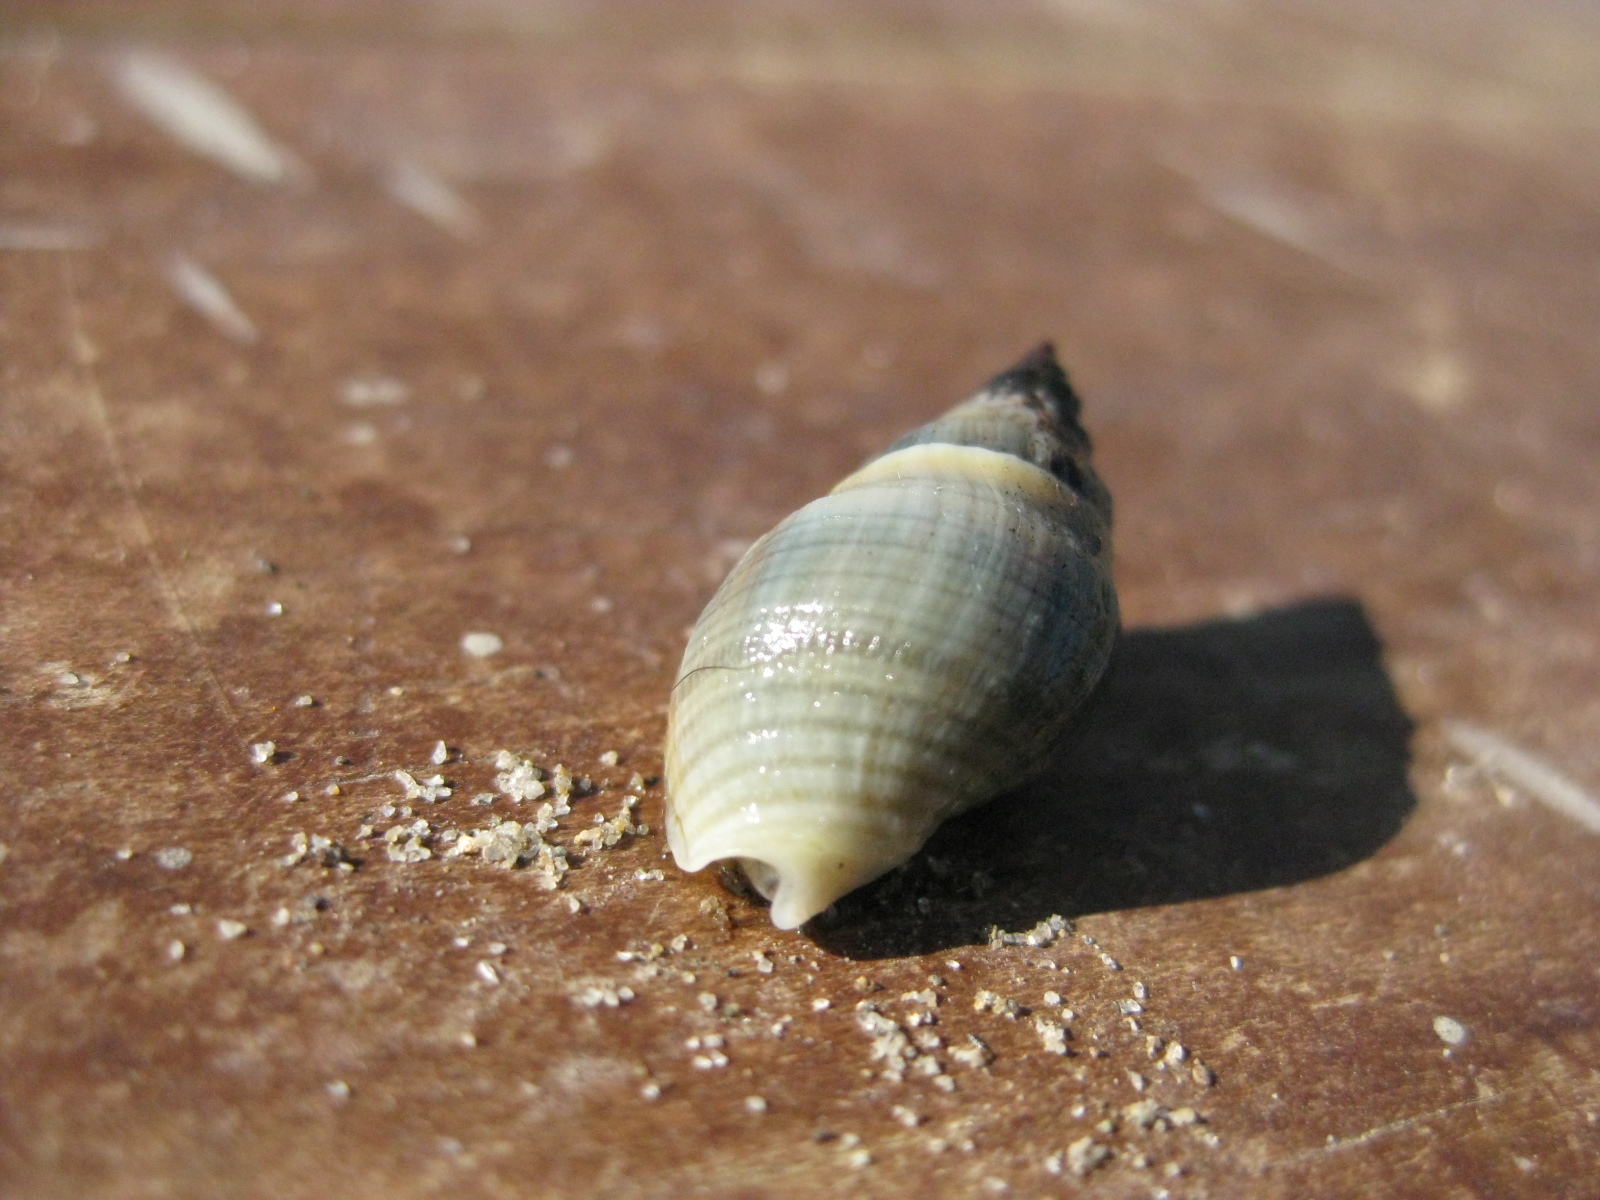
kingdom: Animalia
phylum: Mollusca
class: Gastropoda
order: Neogastropoda
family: Cominellidae
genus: Cominella
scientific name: Cominella glandiformis
